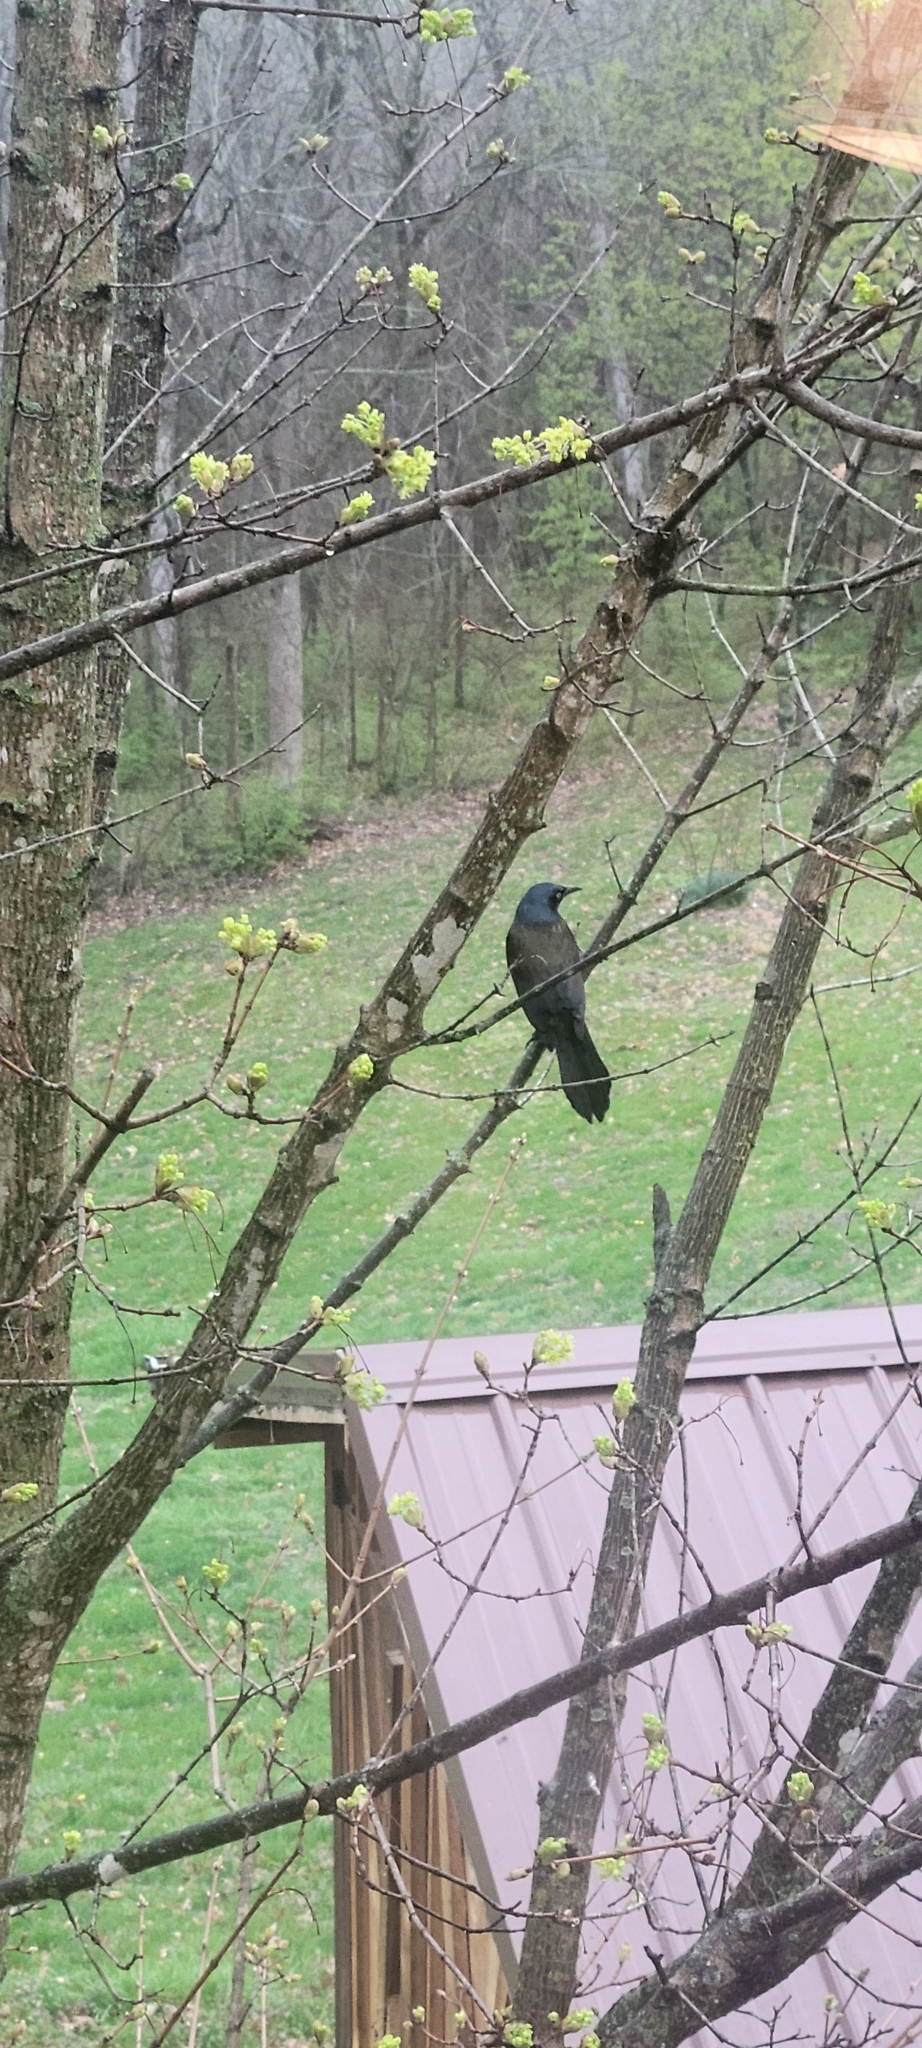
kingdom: Animalia
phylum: Chordata
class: Aves
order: Passeriformes
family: Icteridae
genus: Quiscalus
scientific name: Quiscalus quiscula
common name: Common grackle
